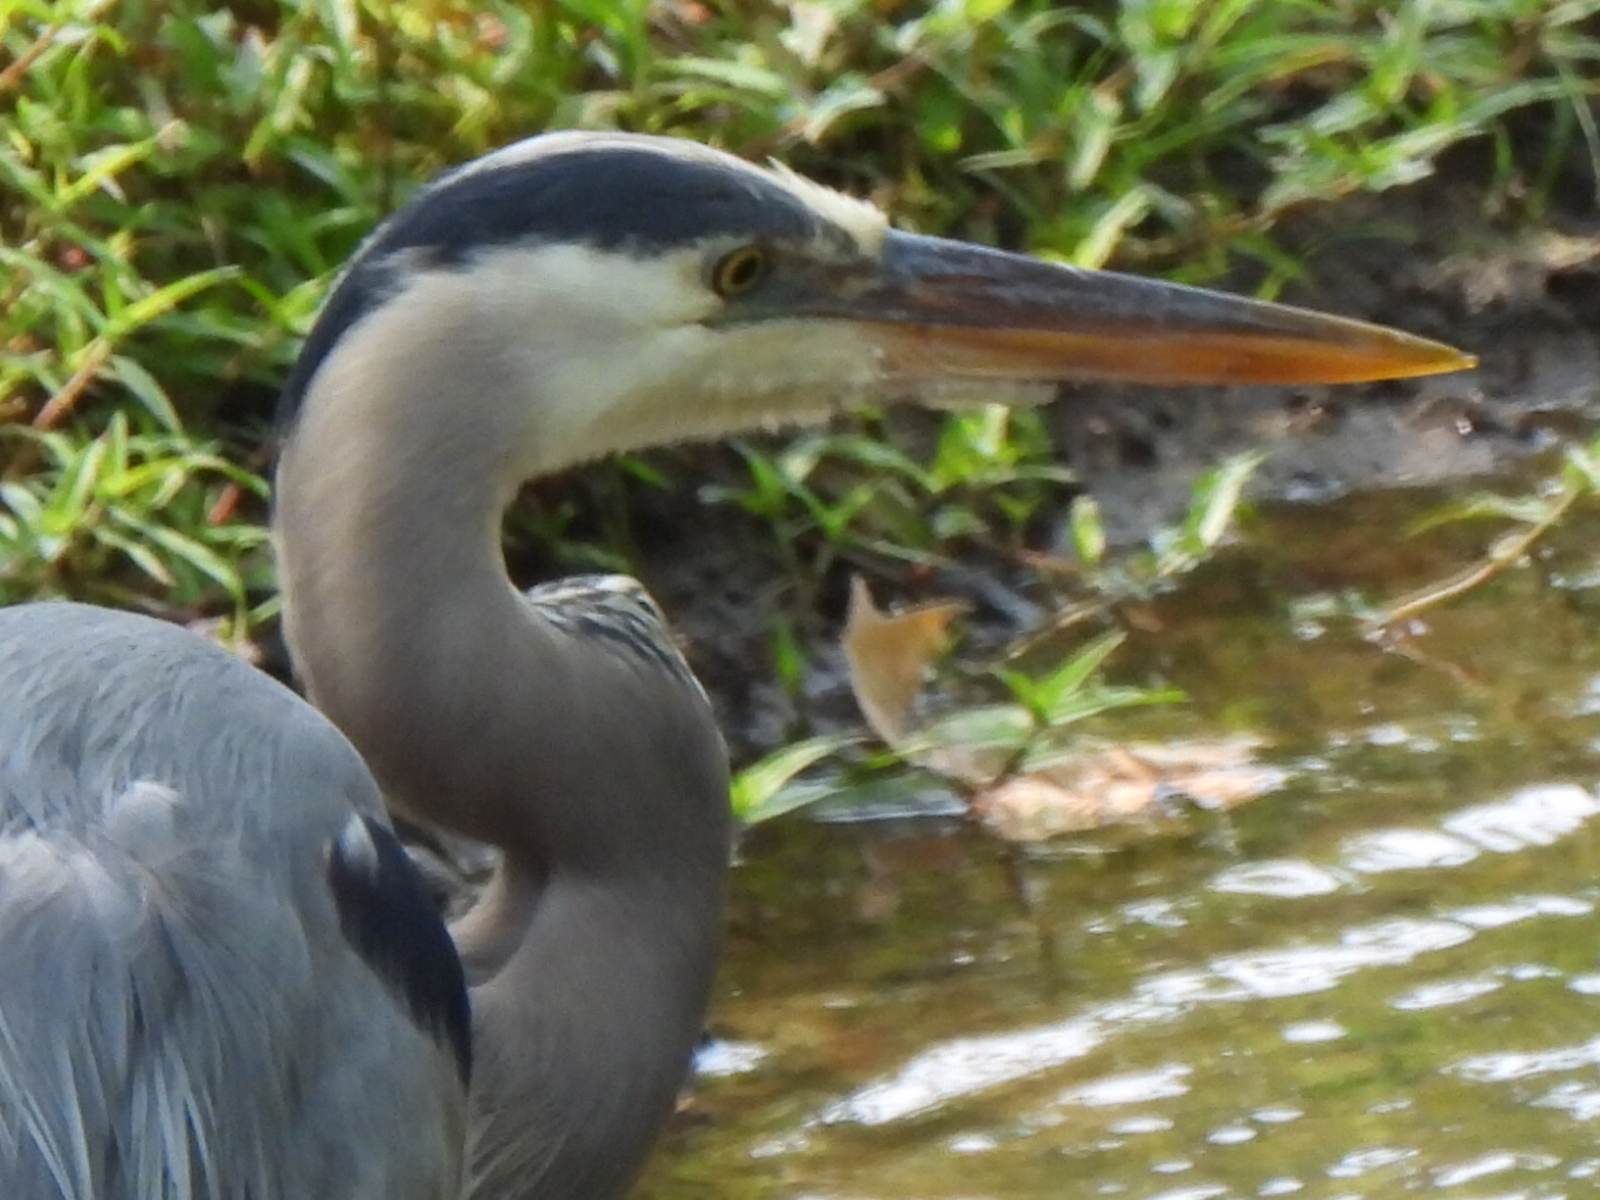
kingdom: Animalia
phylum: Chordata
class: Aves
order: Pelecaniformes
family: Ardeidae
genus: Ardea
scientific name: Ardea herodias
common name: Great blue heron
